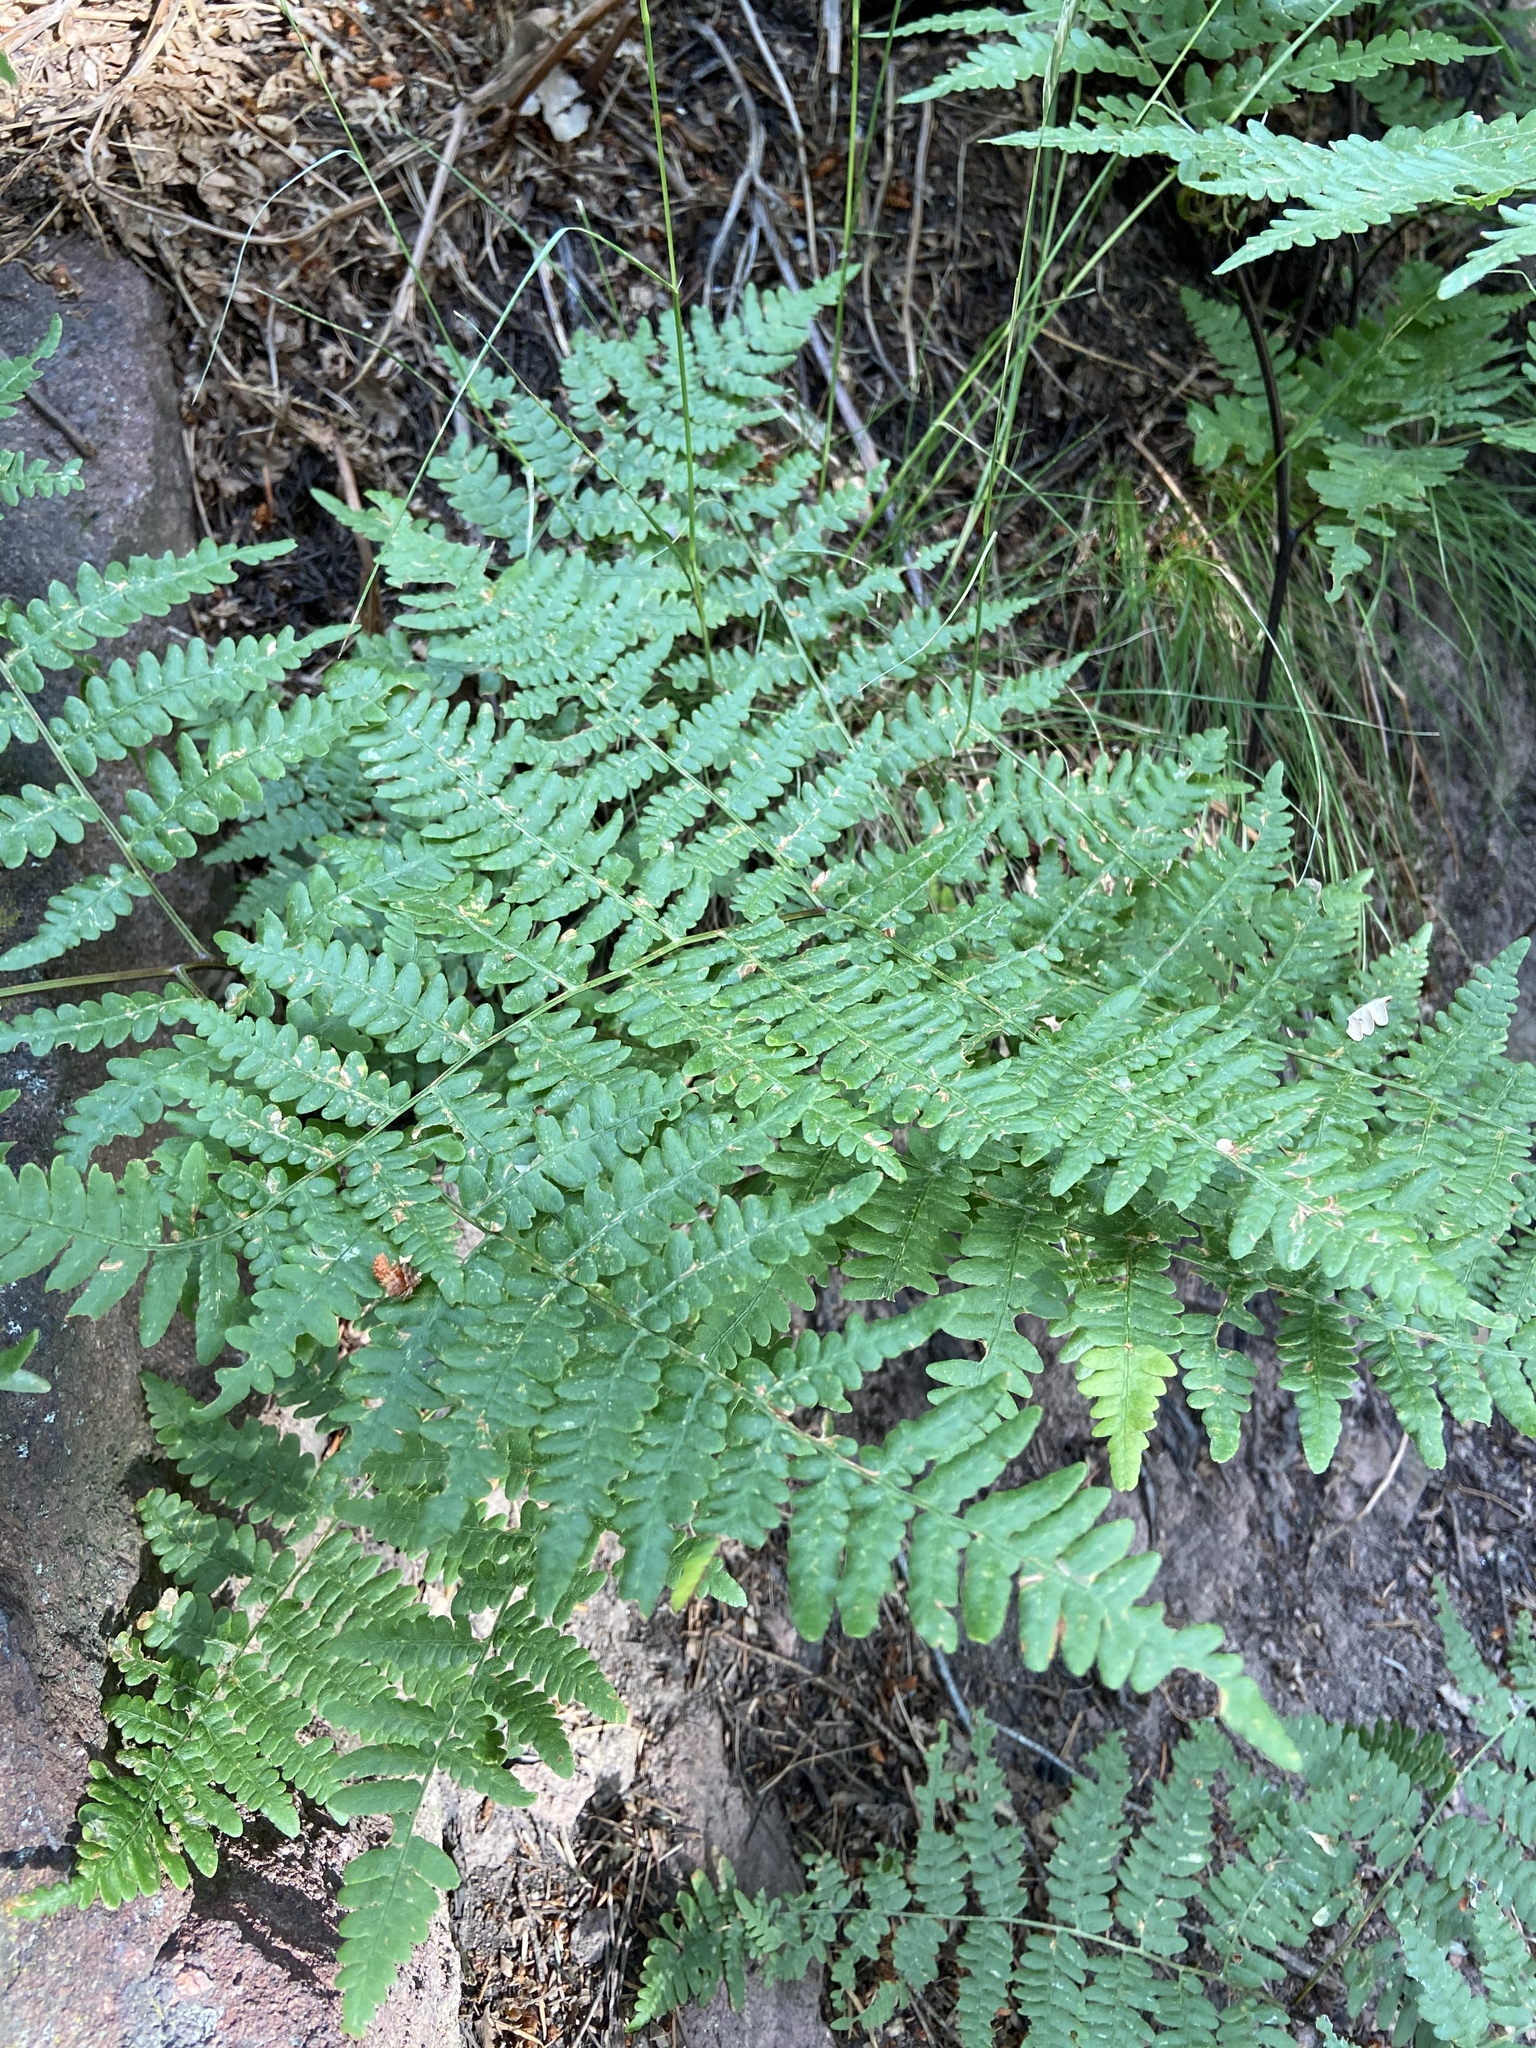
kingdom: Plantae
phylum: Tracheophyta
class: Polypodiopsida
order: Polypodiales
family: Dennstaedtiaceae
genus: Pteridium
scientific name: Pteridium aquilinum
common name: Bracken
